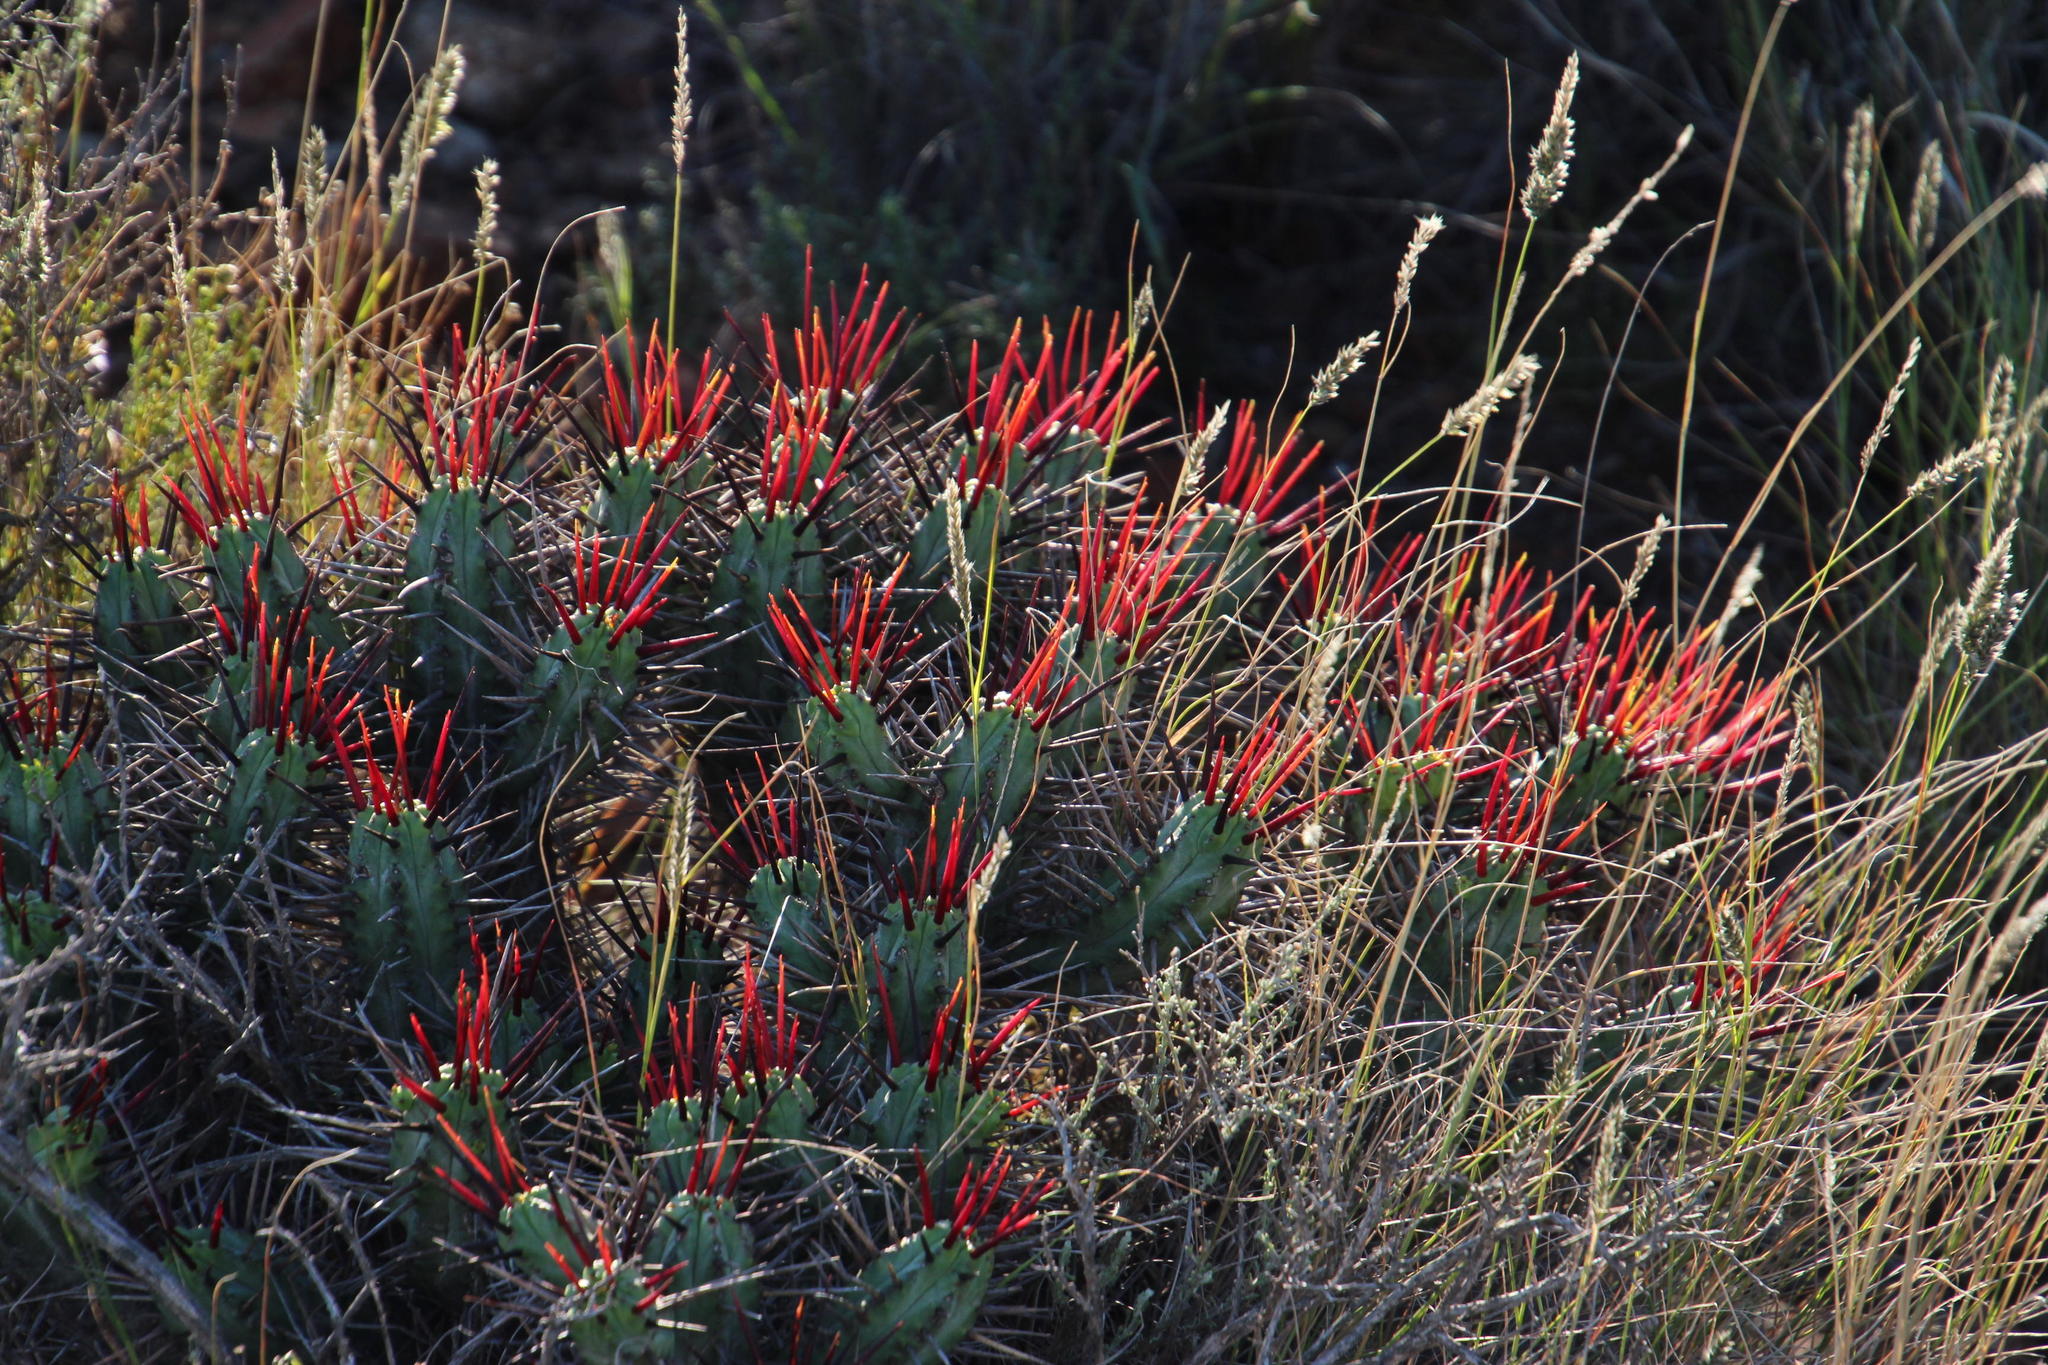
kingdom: Plantae
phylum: Tracheophyta
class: Magnoliopsida
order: Malpighiales
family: Euphorbiaceae
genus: Euphorbia
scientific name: Euphorbia heptagona
